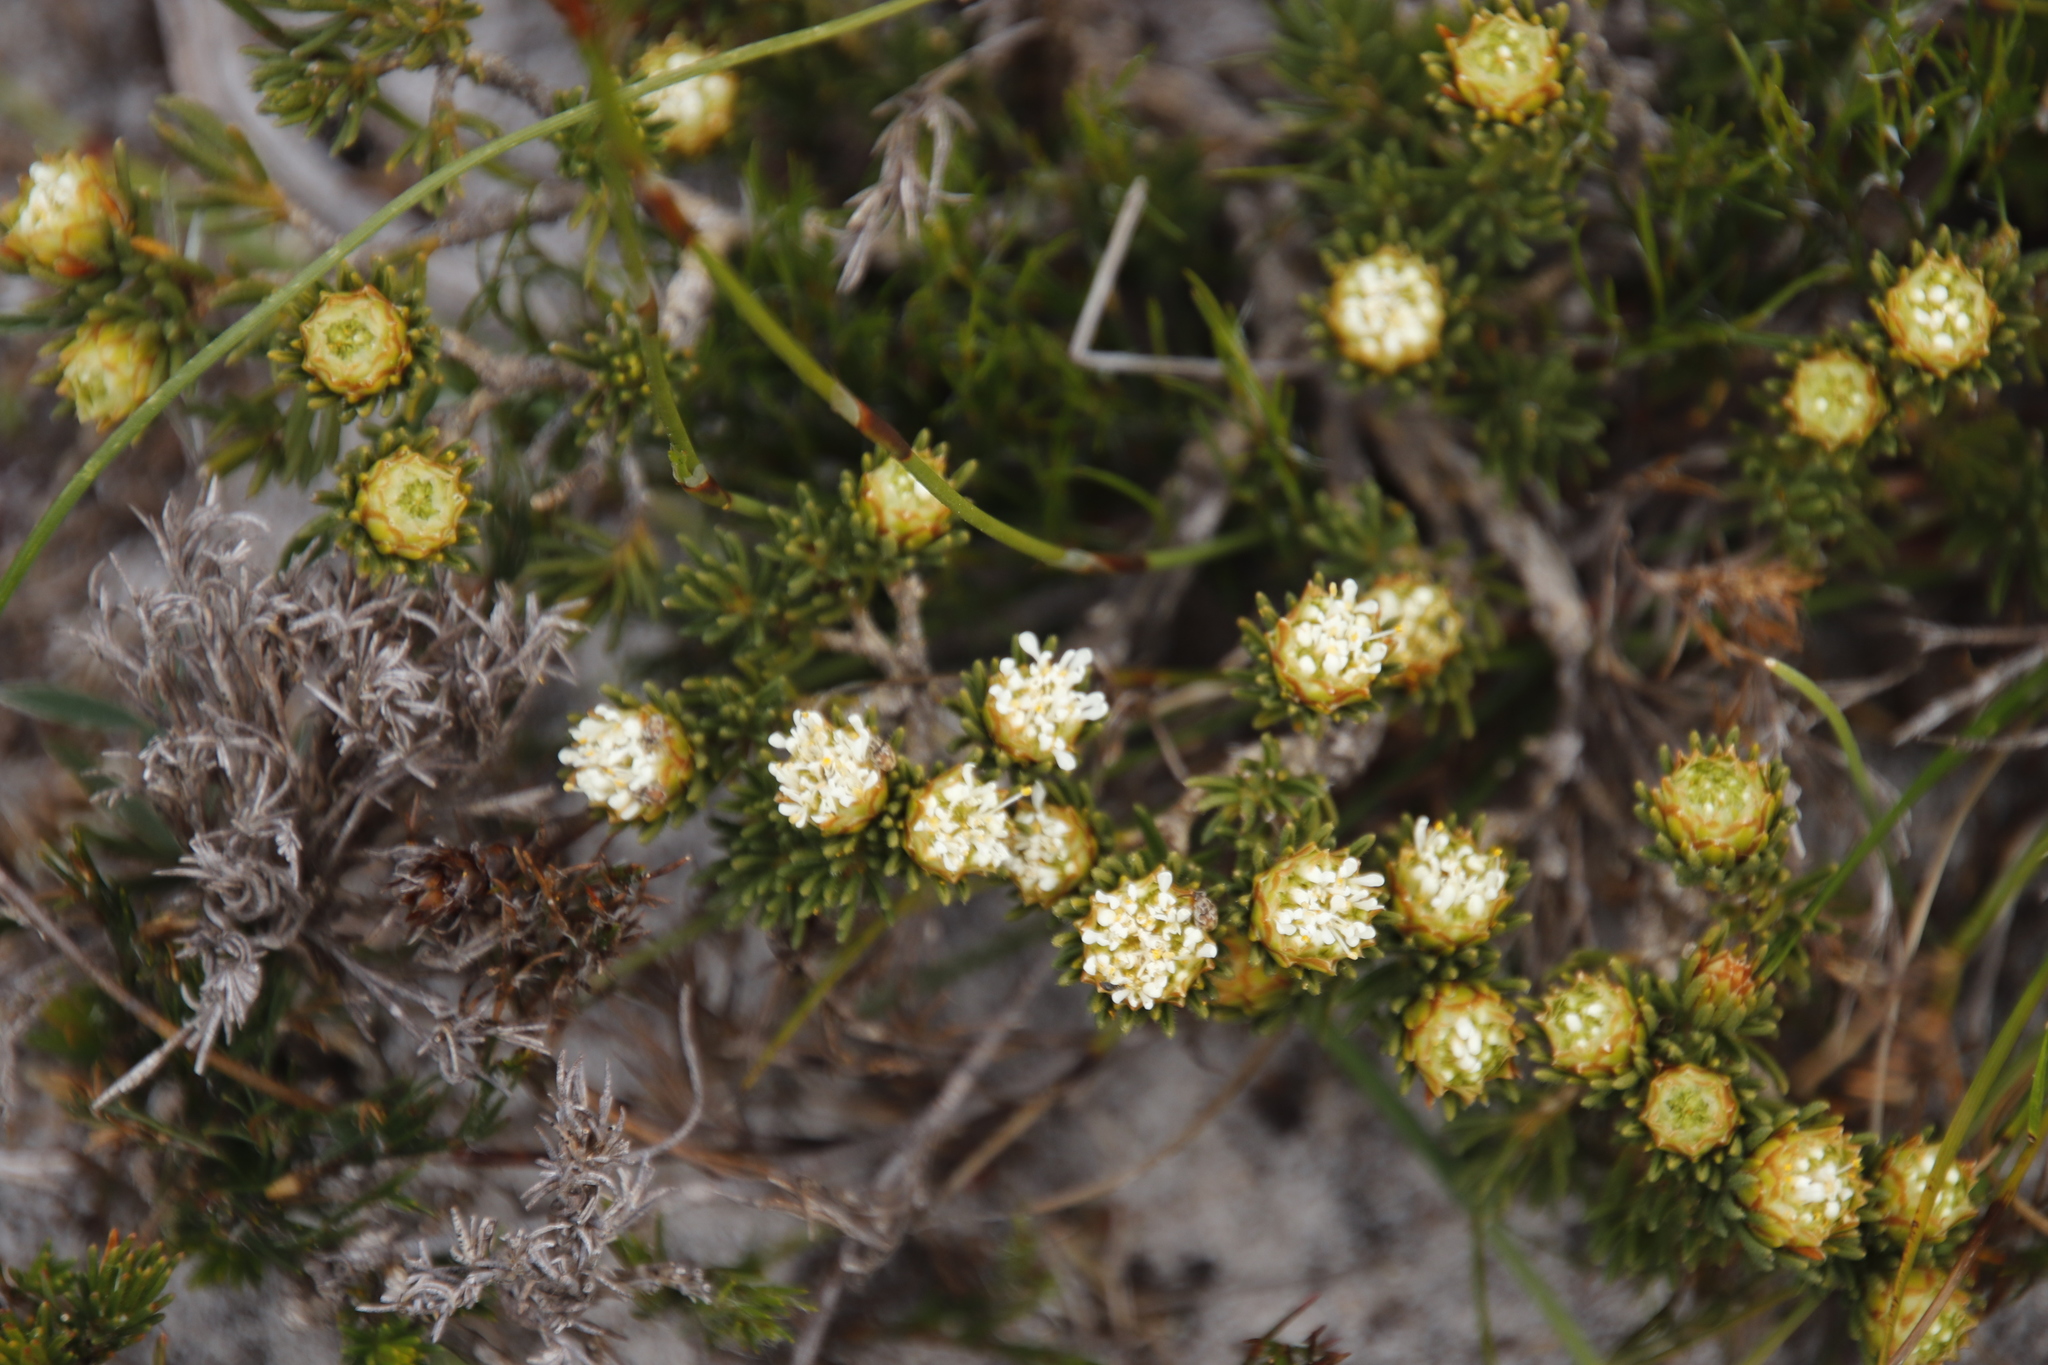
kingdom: Plantae
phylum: Tracheophyta
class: Magnoliopsida
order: Sapindales
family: Rutaceae
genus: Agathosma
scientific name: Agathosma hookeri
